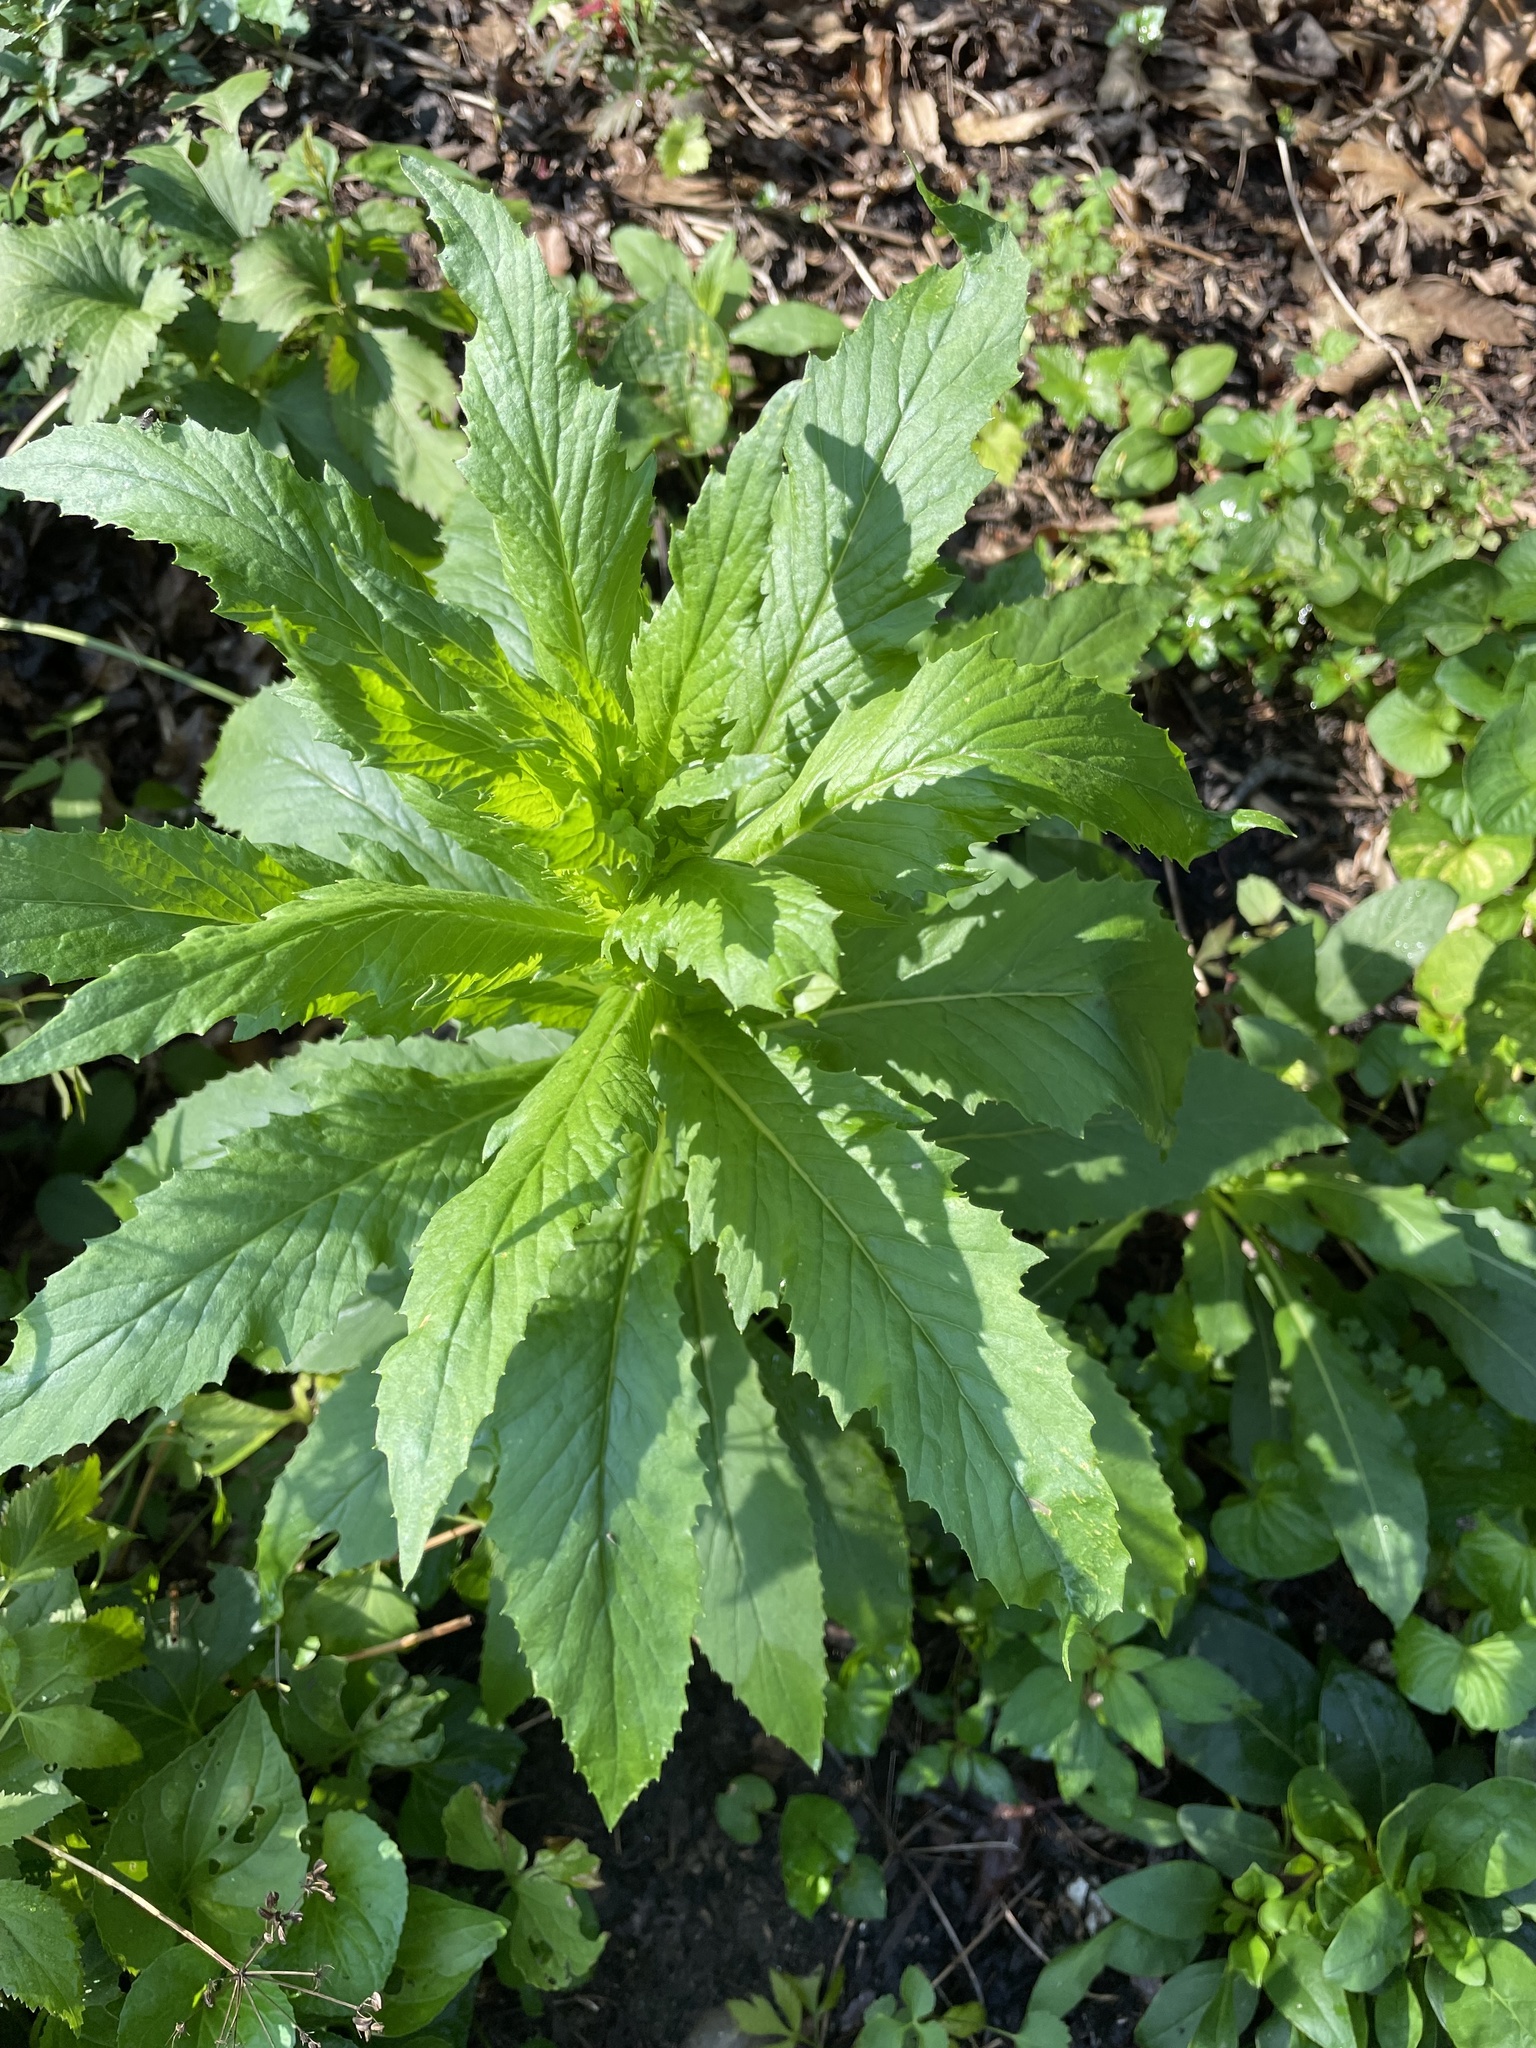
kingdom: Plantae
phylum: Tracheophyta
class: Magnoliopsida
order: Asterales
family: Asteraceae
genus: Erechtites
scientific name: Erechtites hieraciifolius
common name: American burnweed
